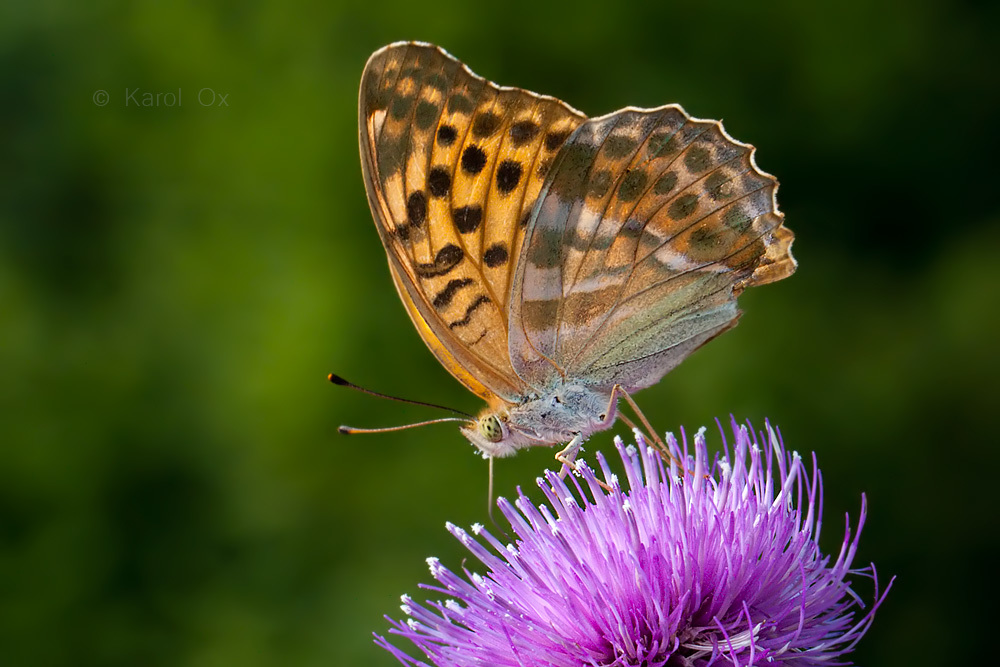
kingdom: Animalia
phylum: Arthropoda
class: Insecta
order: Lepidoptera
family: Nymphalidae
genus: Argynnis
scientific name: Argynnis paphia
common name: Silver-washed fritillary
